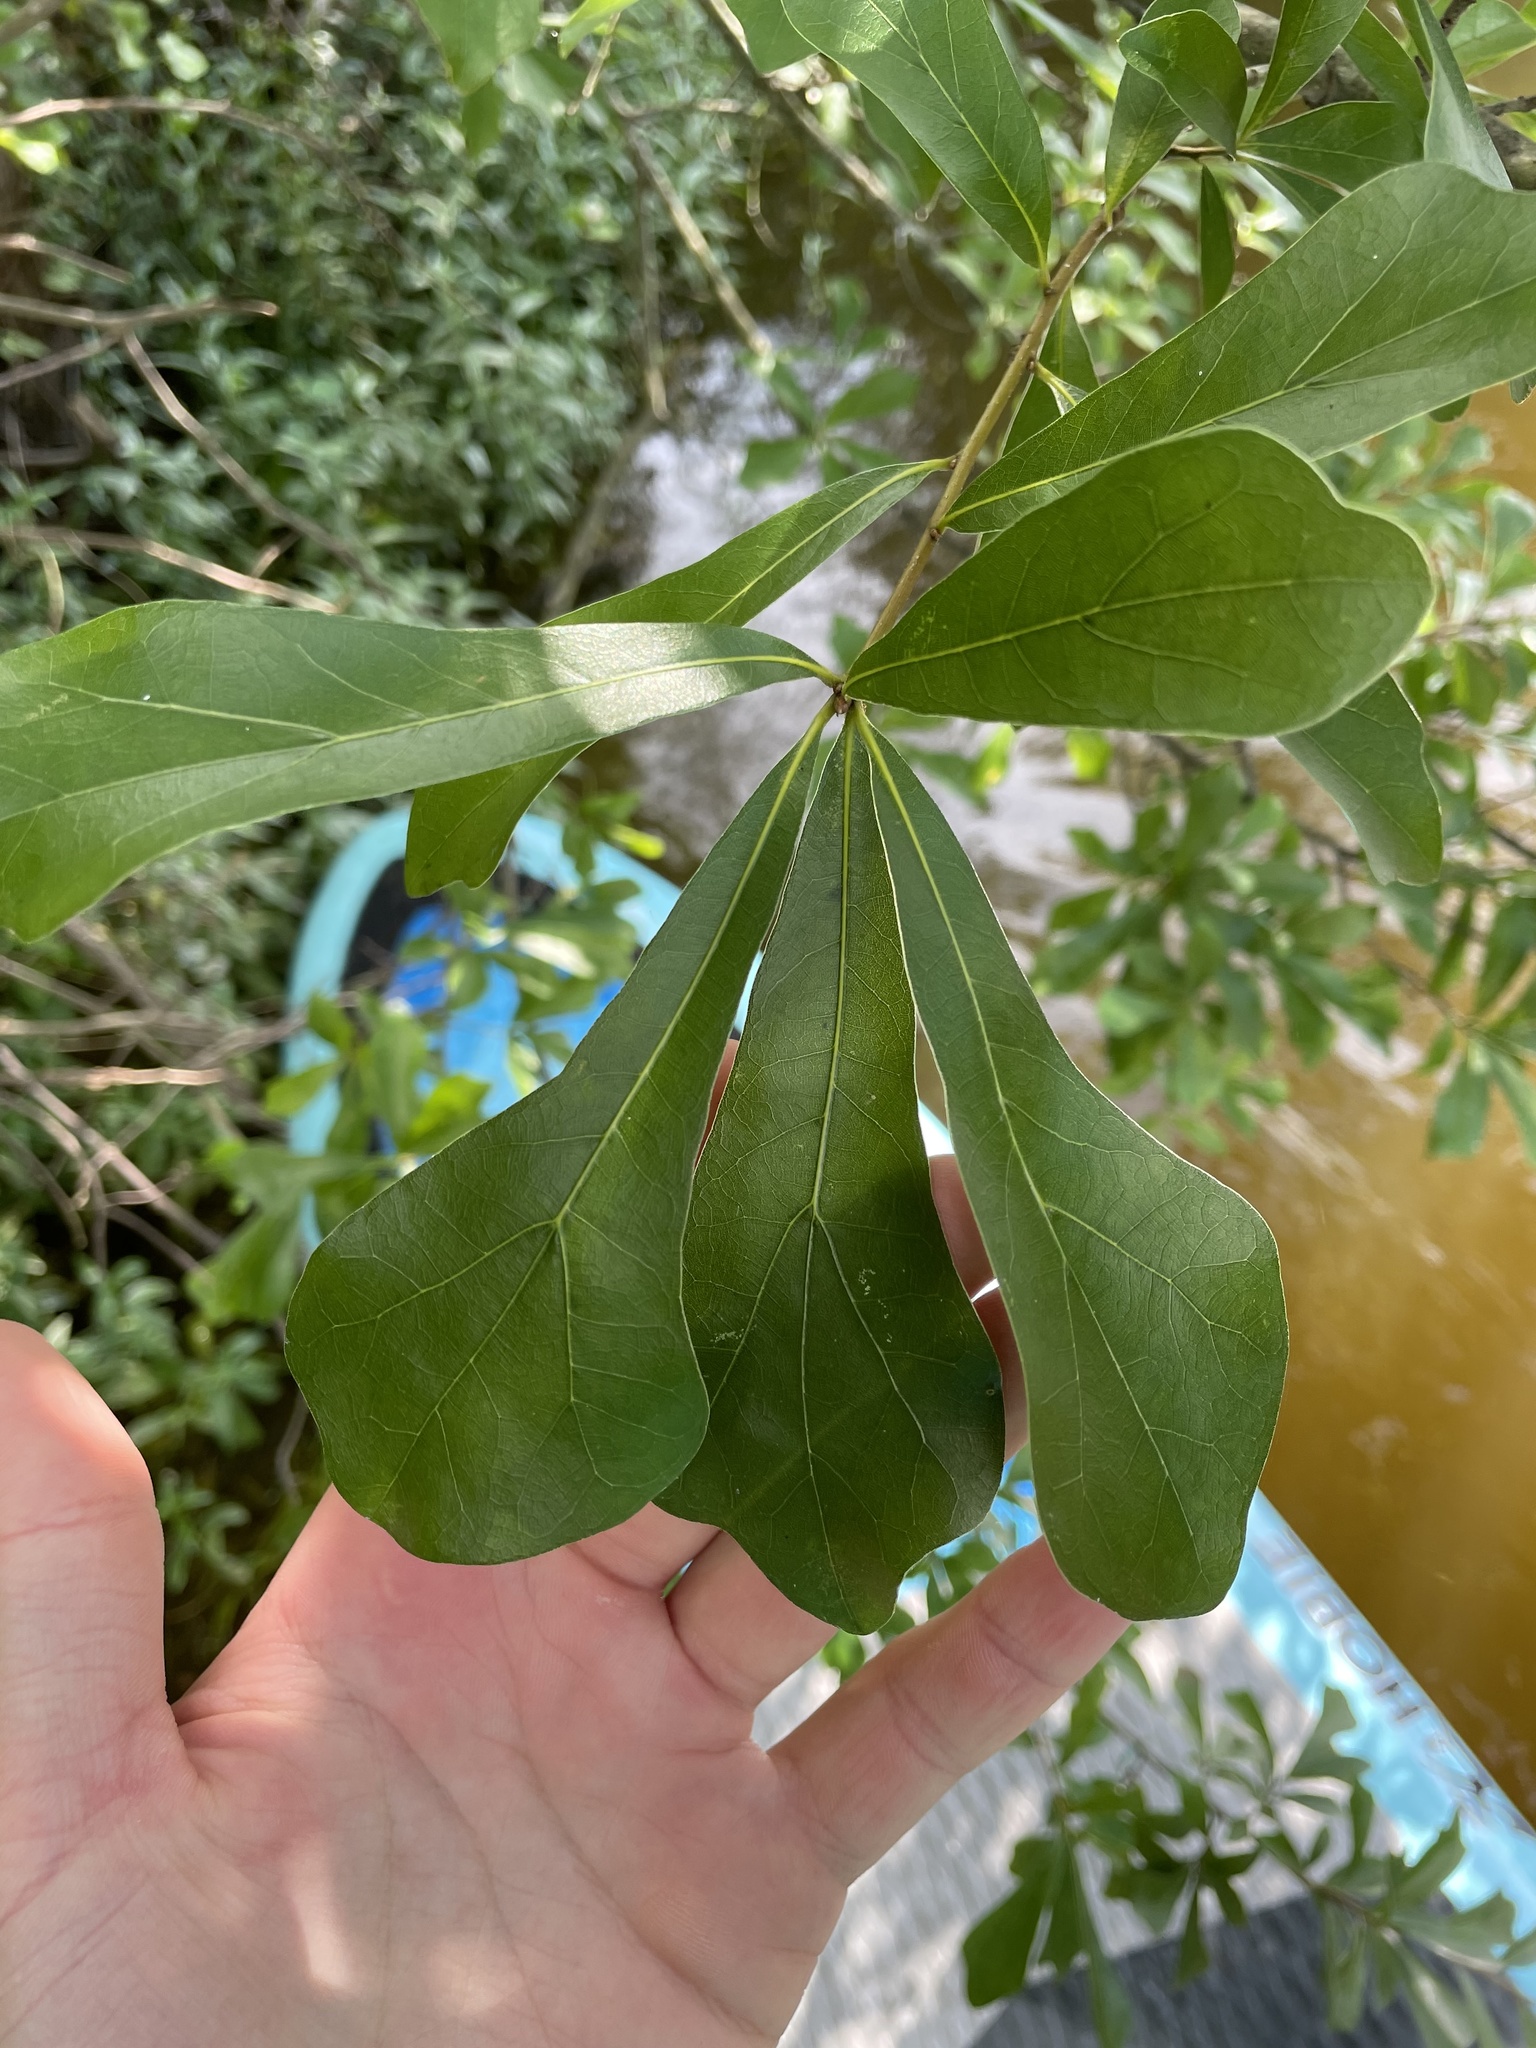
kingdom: Plantae
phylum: Tracheophyta
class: Magnoliopsida
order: Fagales
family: Fagaceae
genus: Quercus
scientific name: Quercus nigra
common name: Water oak
